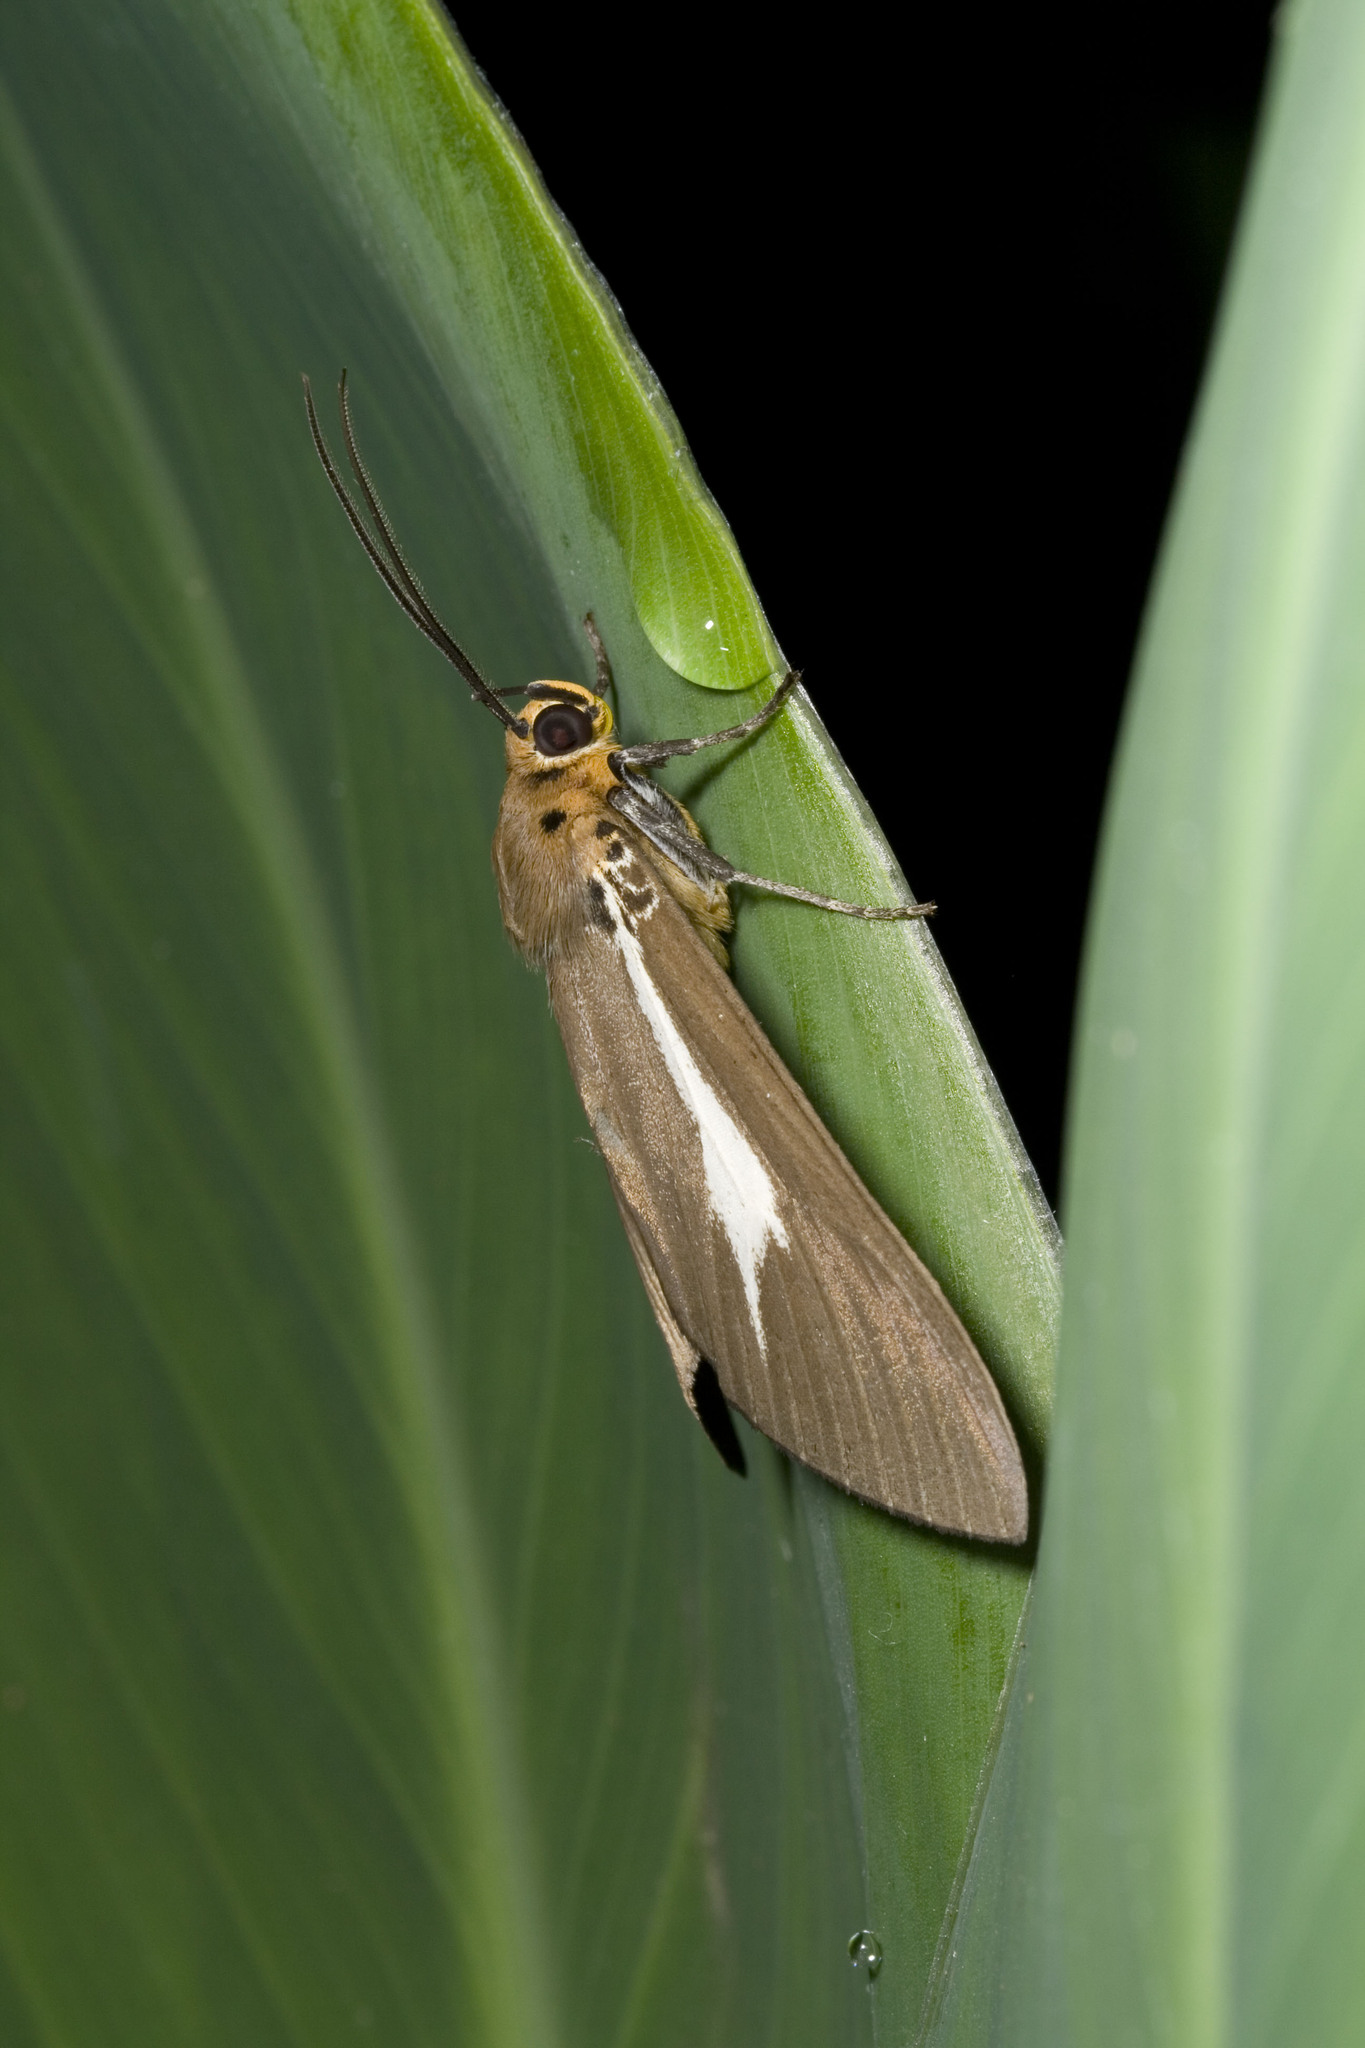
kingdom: Animalia
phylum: Arthropoda
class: Insecta
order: Lepidoptera
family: Erebidae
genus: Asota
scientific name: Asota heliconia
